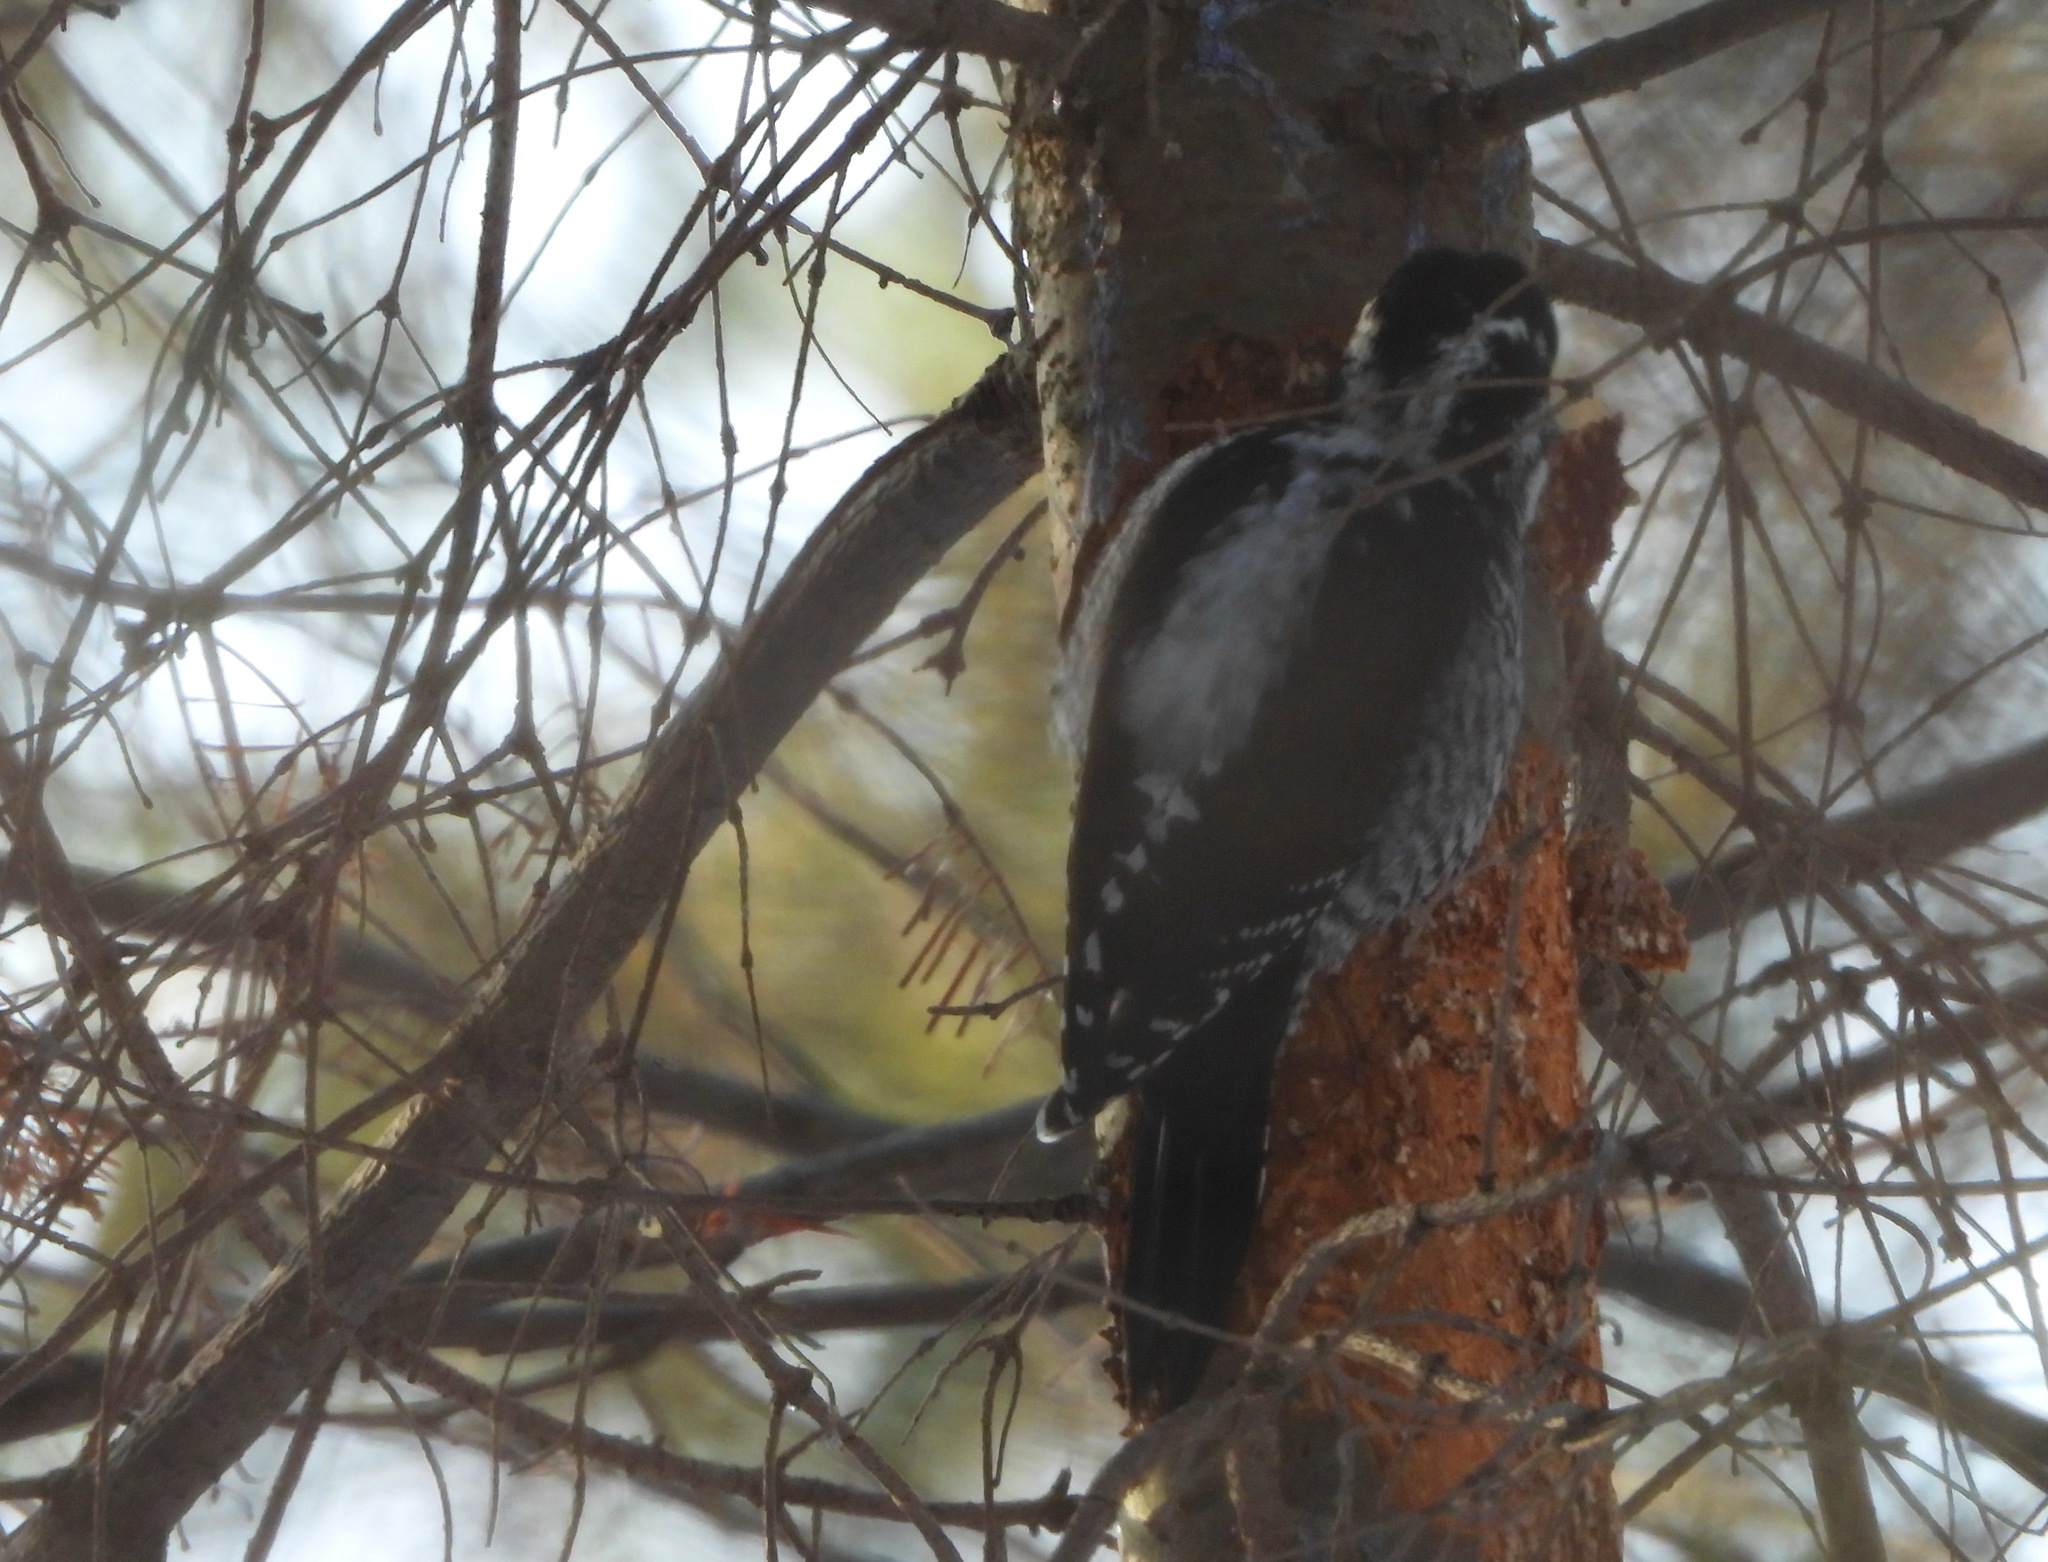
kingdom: Animalia
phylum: Chordata
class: Aves
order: Piciformes
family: Picidae
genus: Picoides
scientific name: Picoides tridactylus
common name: Eurasian three-toed woodpecker
